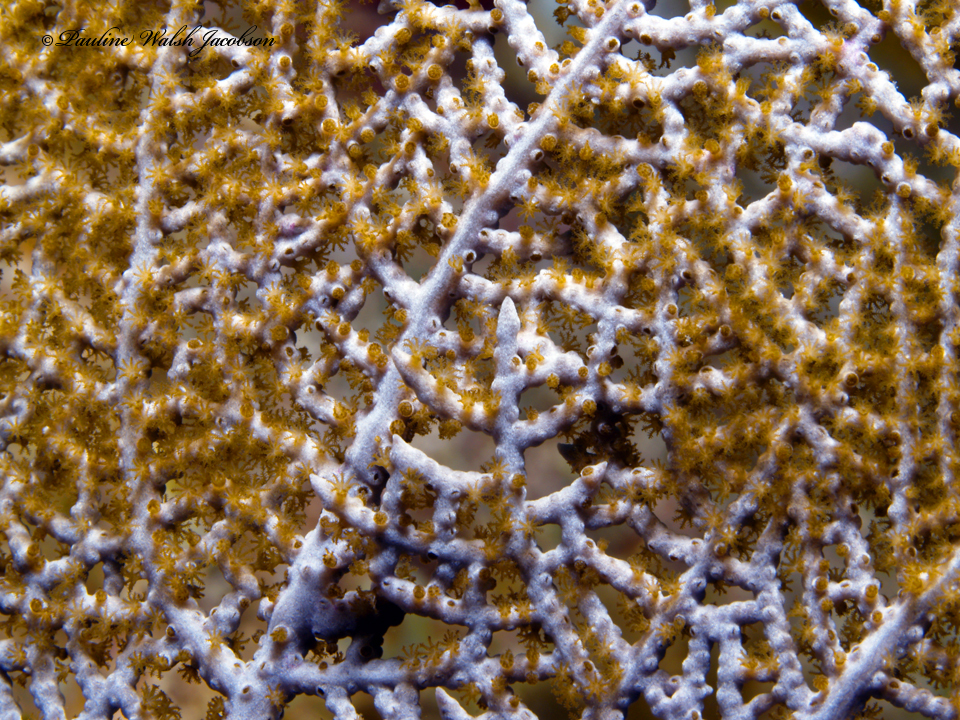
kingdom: Animalia
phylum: Cnidaria
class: Anthozoa
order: Malacalcyonacea
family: Gorgoniidae
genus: Gorgonia
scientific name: Gorgonia ventalina
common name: Common sea fan
